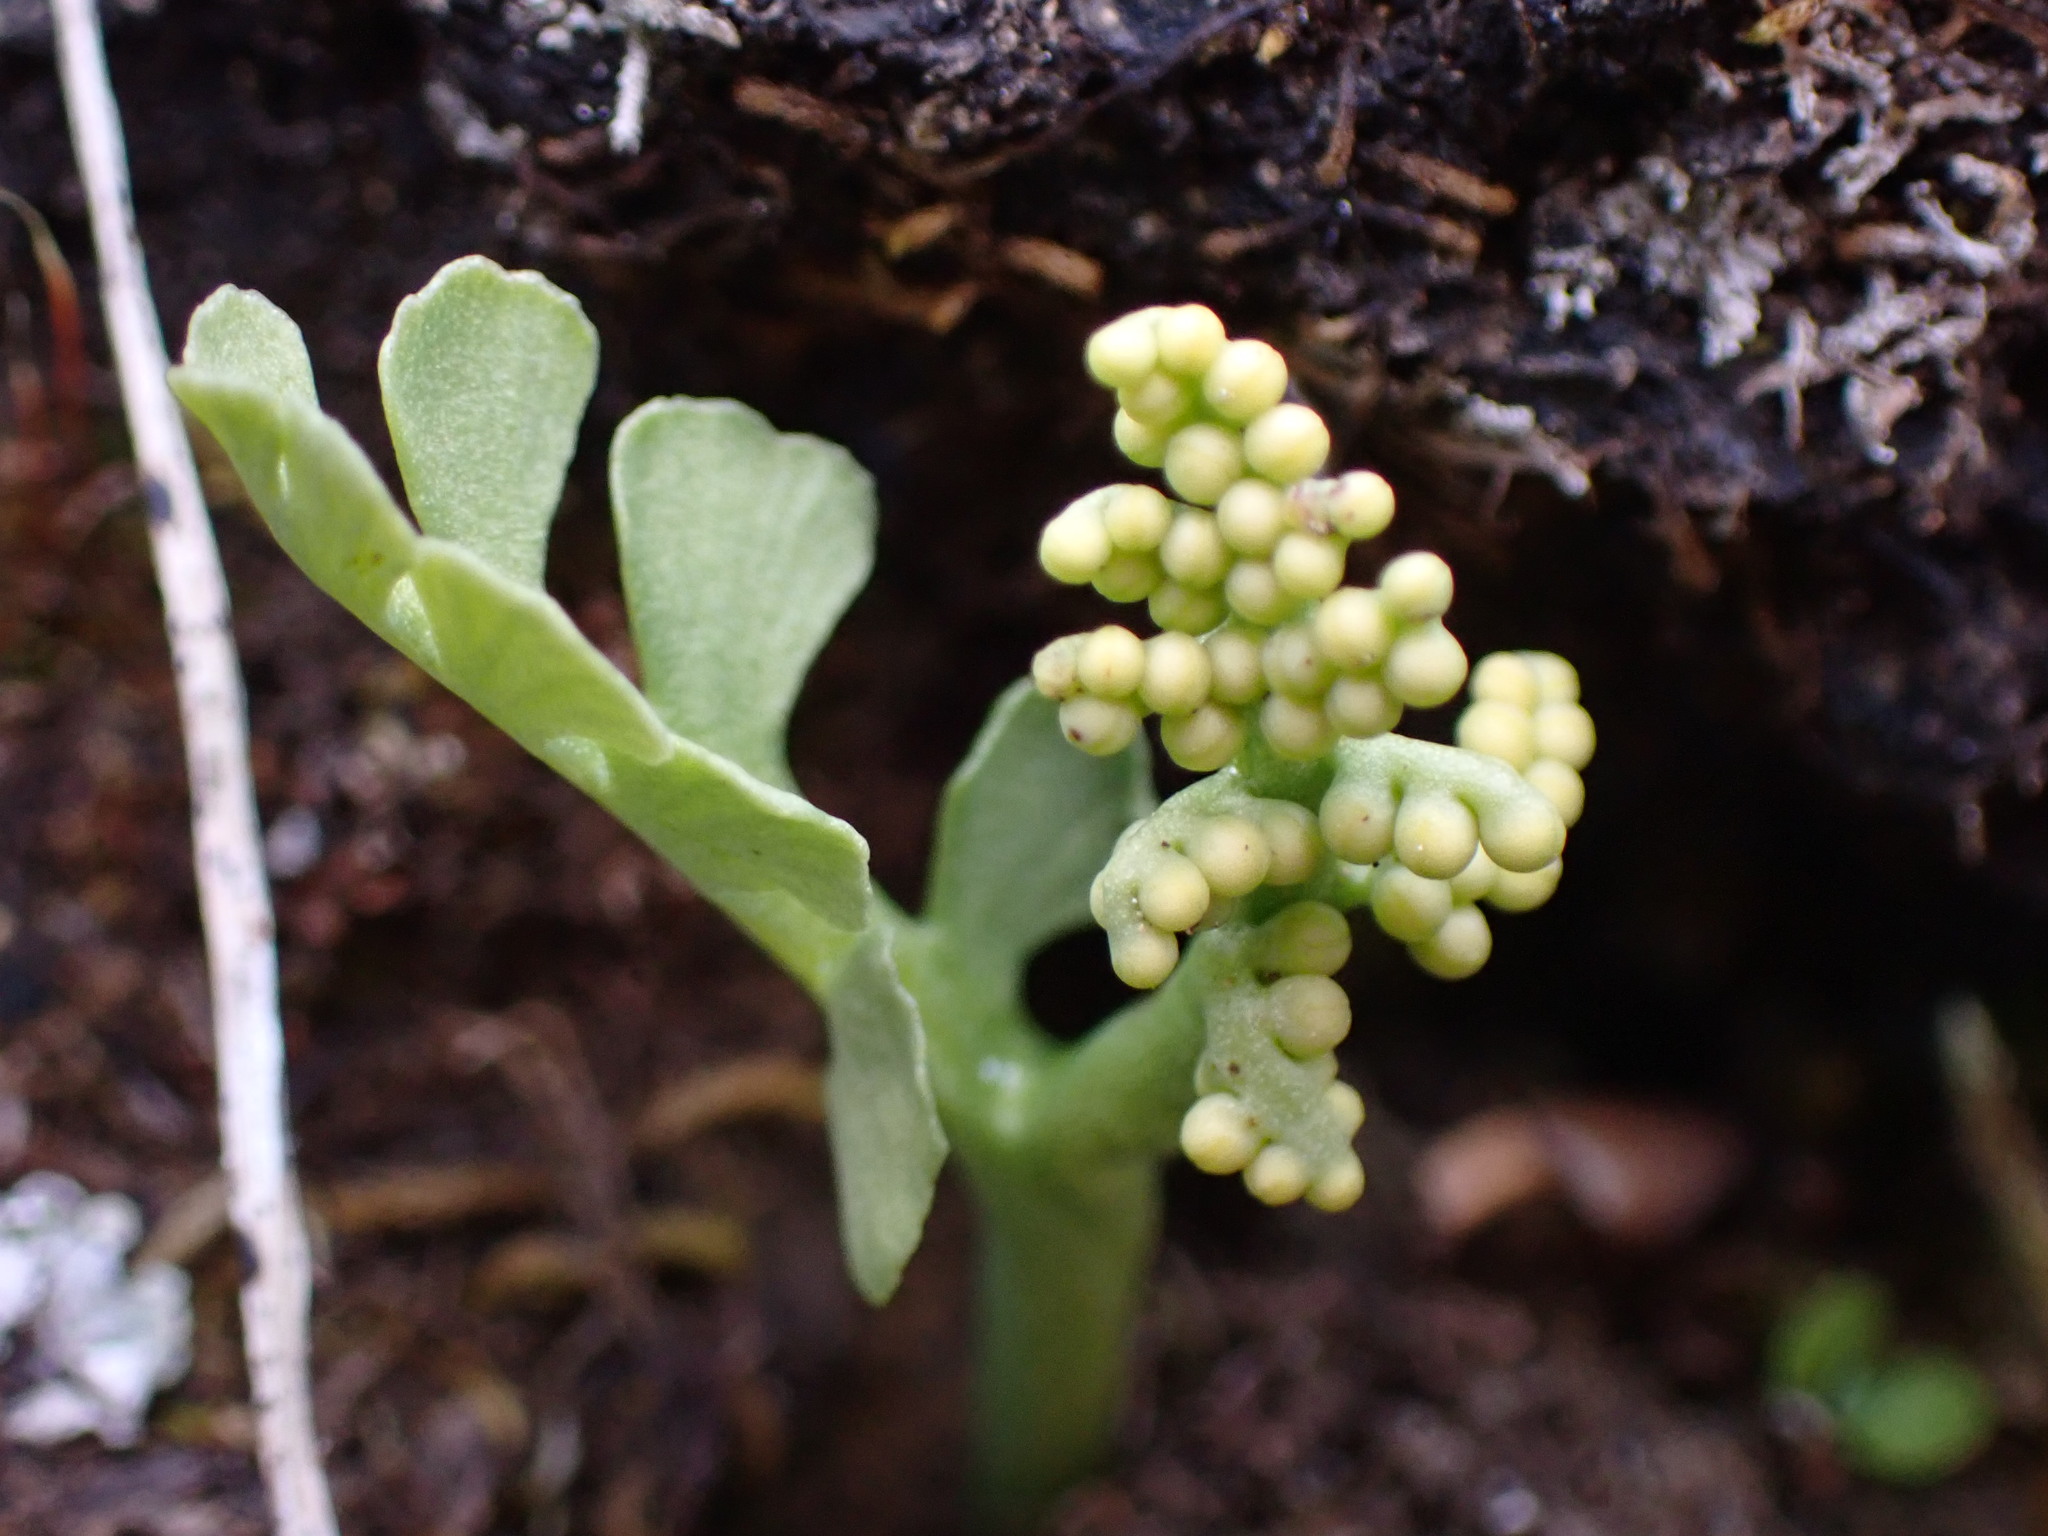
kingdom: Plantae
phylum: Tracheophyta
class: Polypodiopsida
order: Ophioglossales
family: Ophioglossaceae
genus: Botrychium
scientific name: Botrychium minganense
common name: Mingan grapefern
